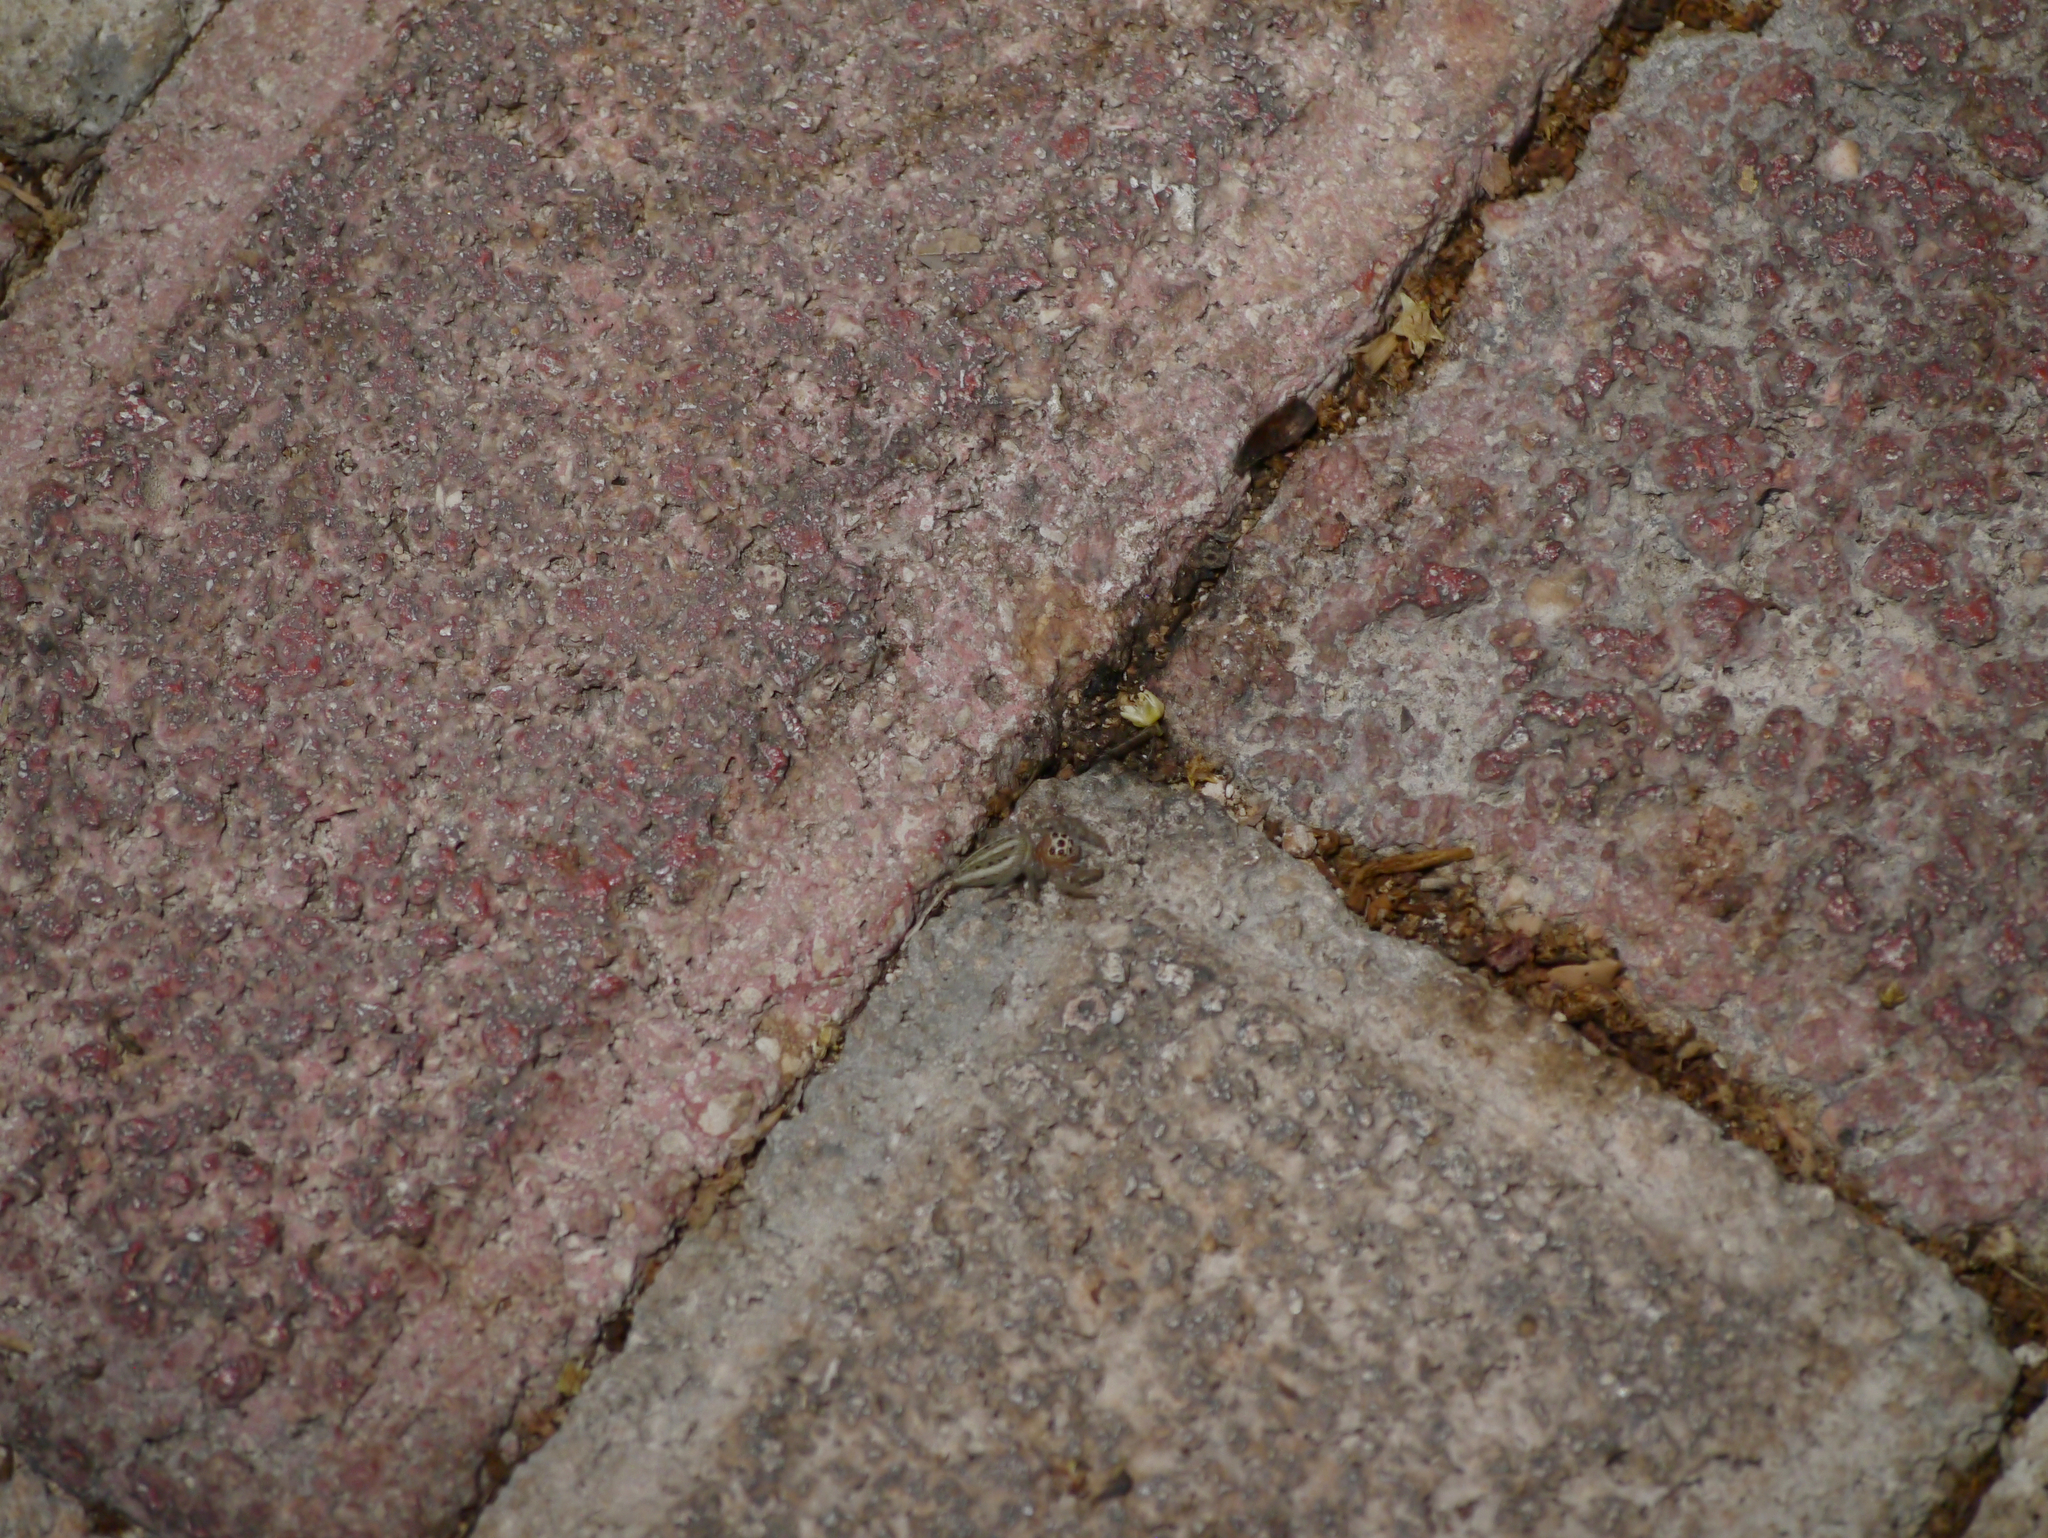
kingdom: Animalia
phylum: Arthropoda
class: Arachnida
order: Araneae
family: Salticidae
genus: Colonus
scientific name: Colonus sylvanus
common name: Jumping spiders
